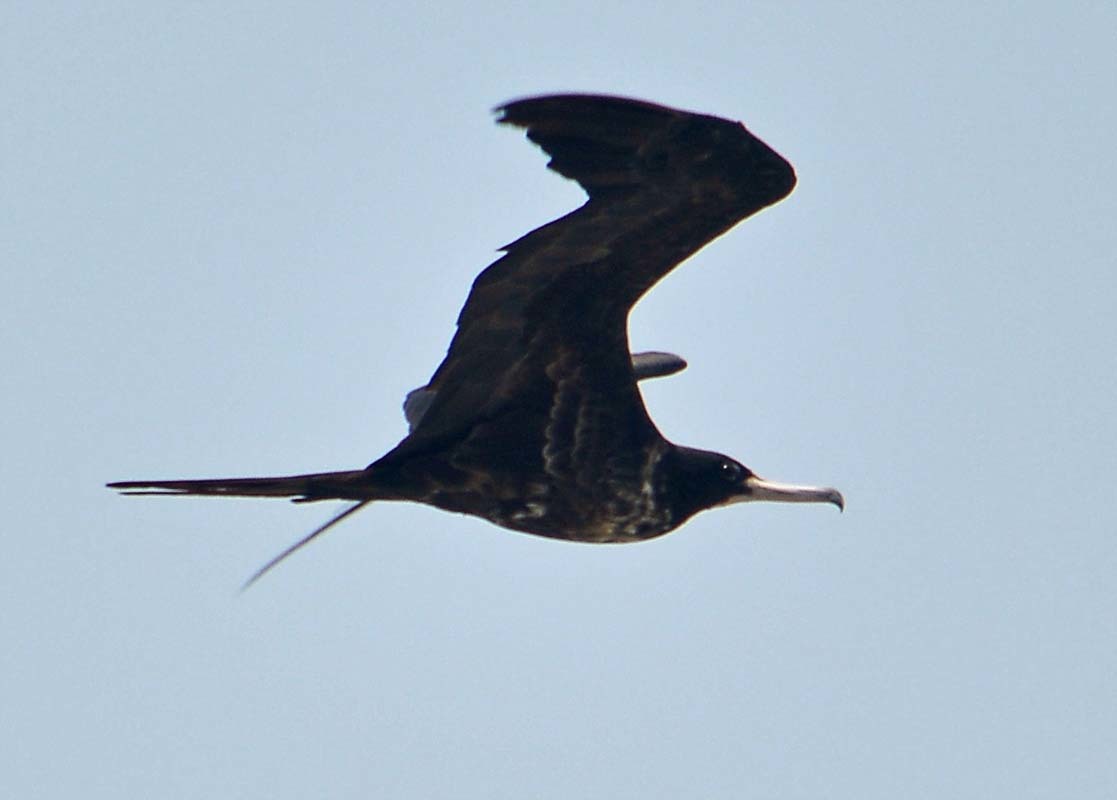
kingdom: Animalia
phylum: Chordata
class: Aves
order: Suliformes
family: Fregatidae
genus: Fregata
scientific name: Fregata magnificens
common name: Magnificent frigatebird
